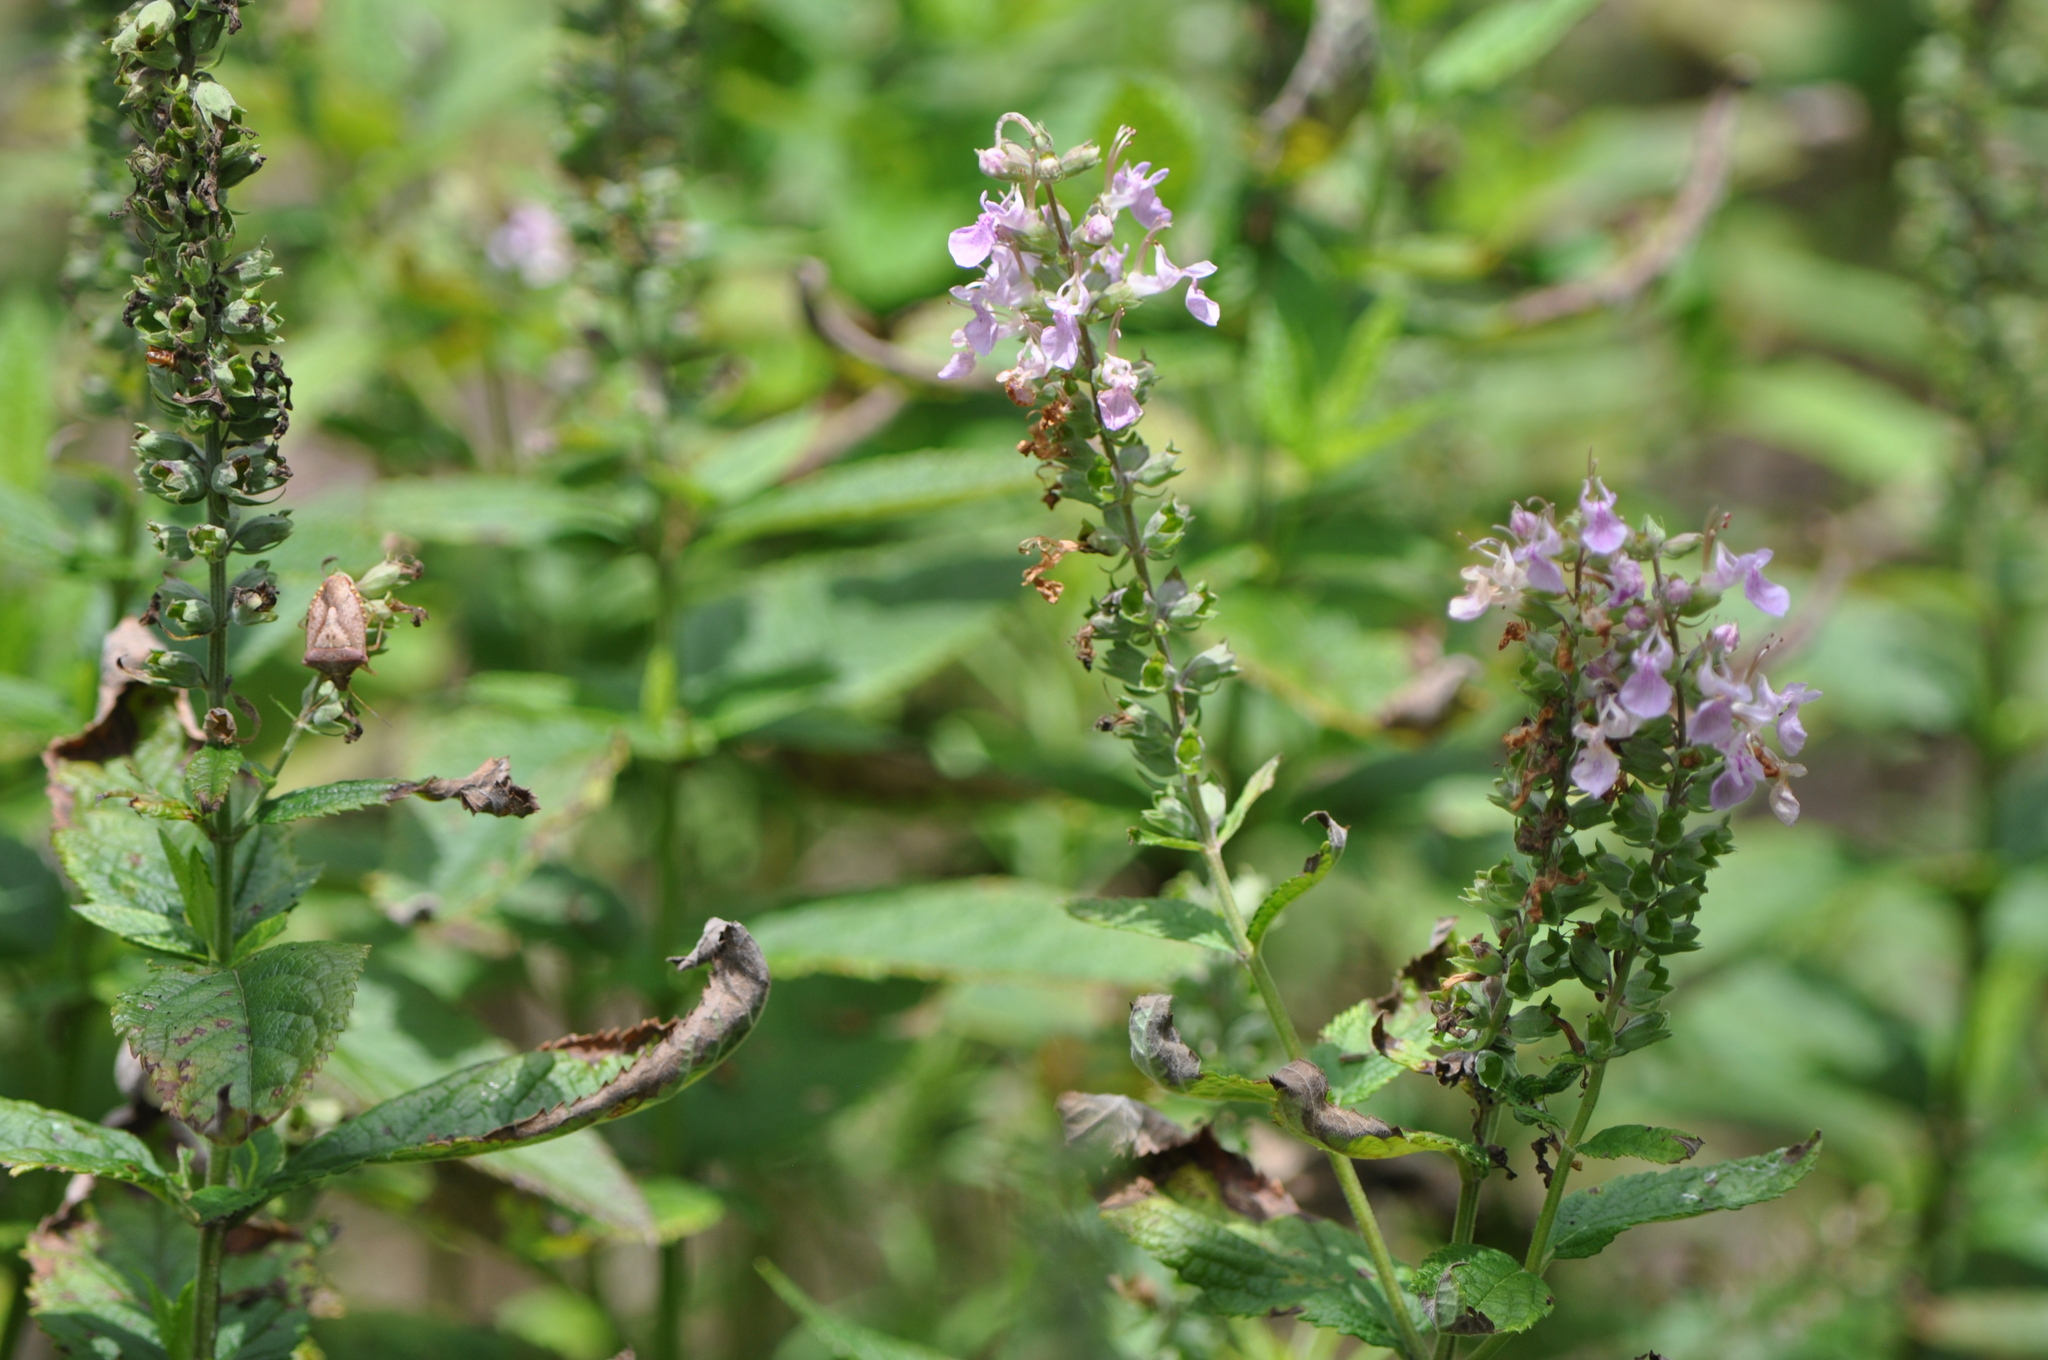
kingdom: Plantae
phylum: Tracheophyta
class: Magnoliopsida
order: Lamiales
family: Lamiaceae
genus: Teucrium
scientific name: Teucrium canadense
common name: American germander
